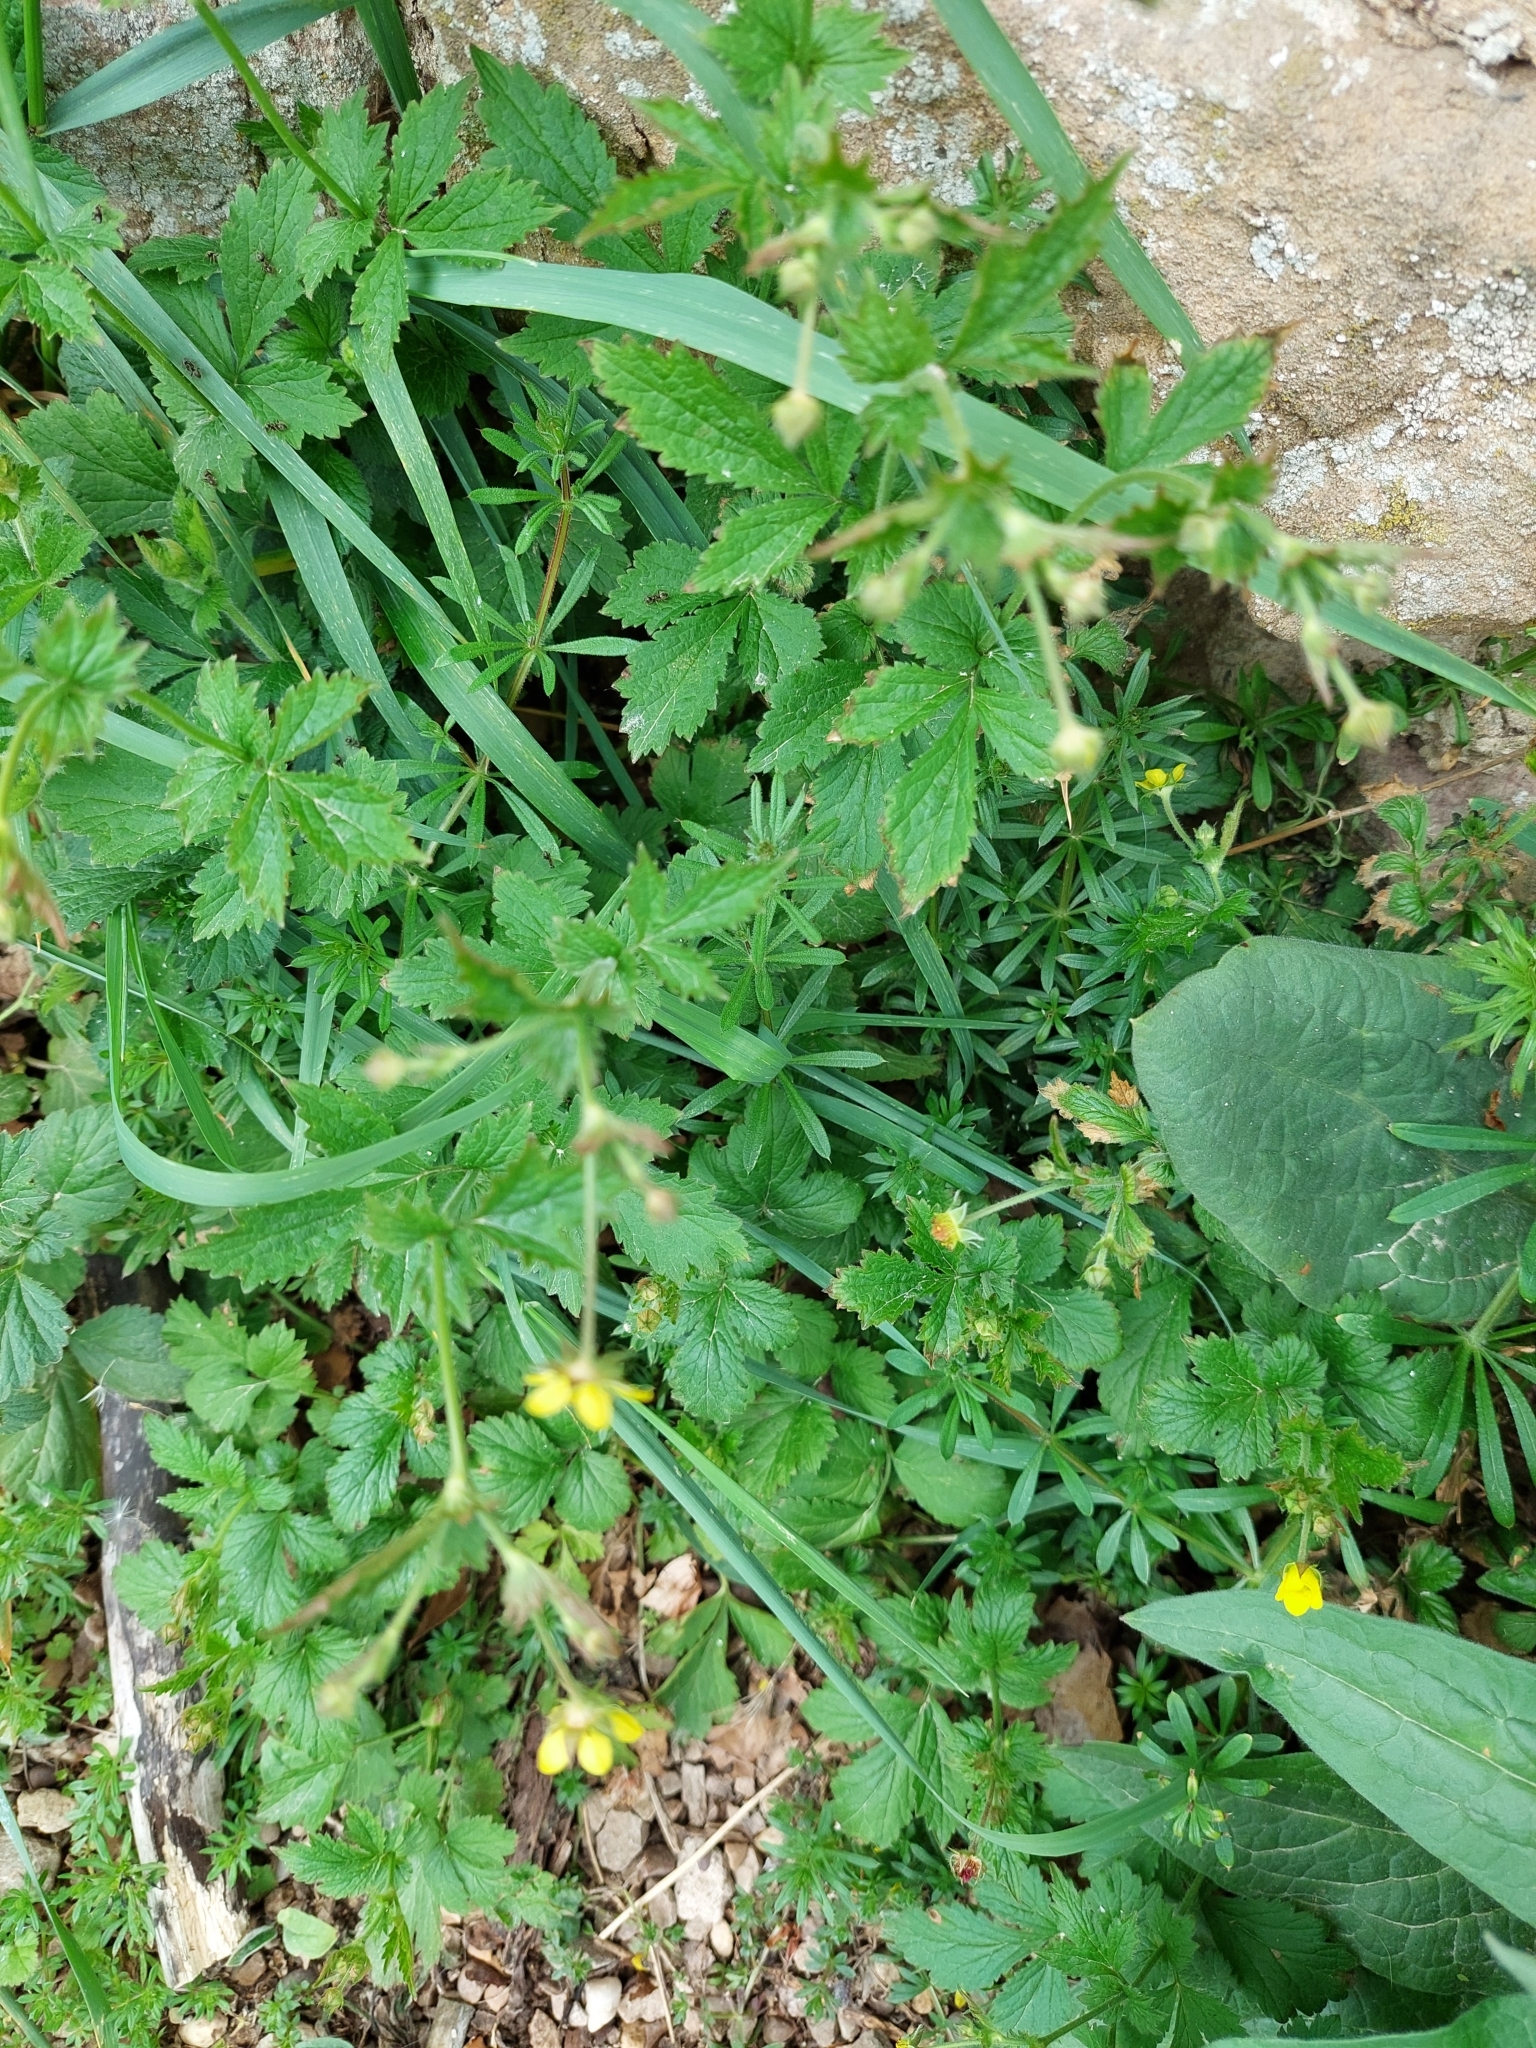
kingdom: Plantae
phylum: Tracheophyta
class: Magnoliopsida
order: Rosales
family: Rosaceae
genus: Geum
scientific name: Geum urbanum
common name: Wood avens
